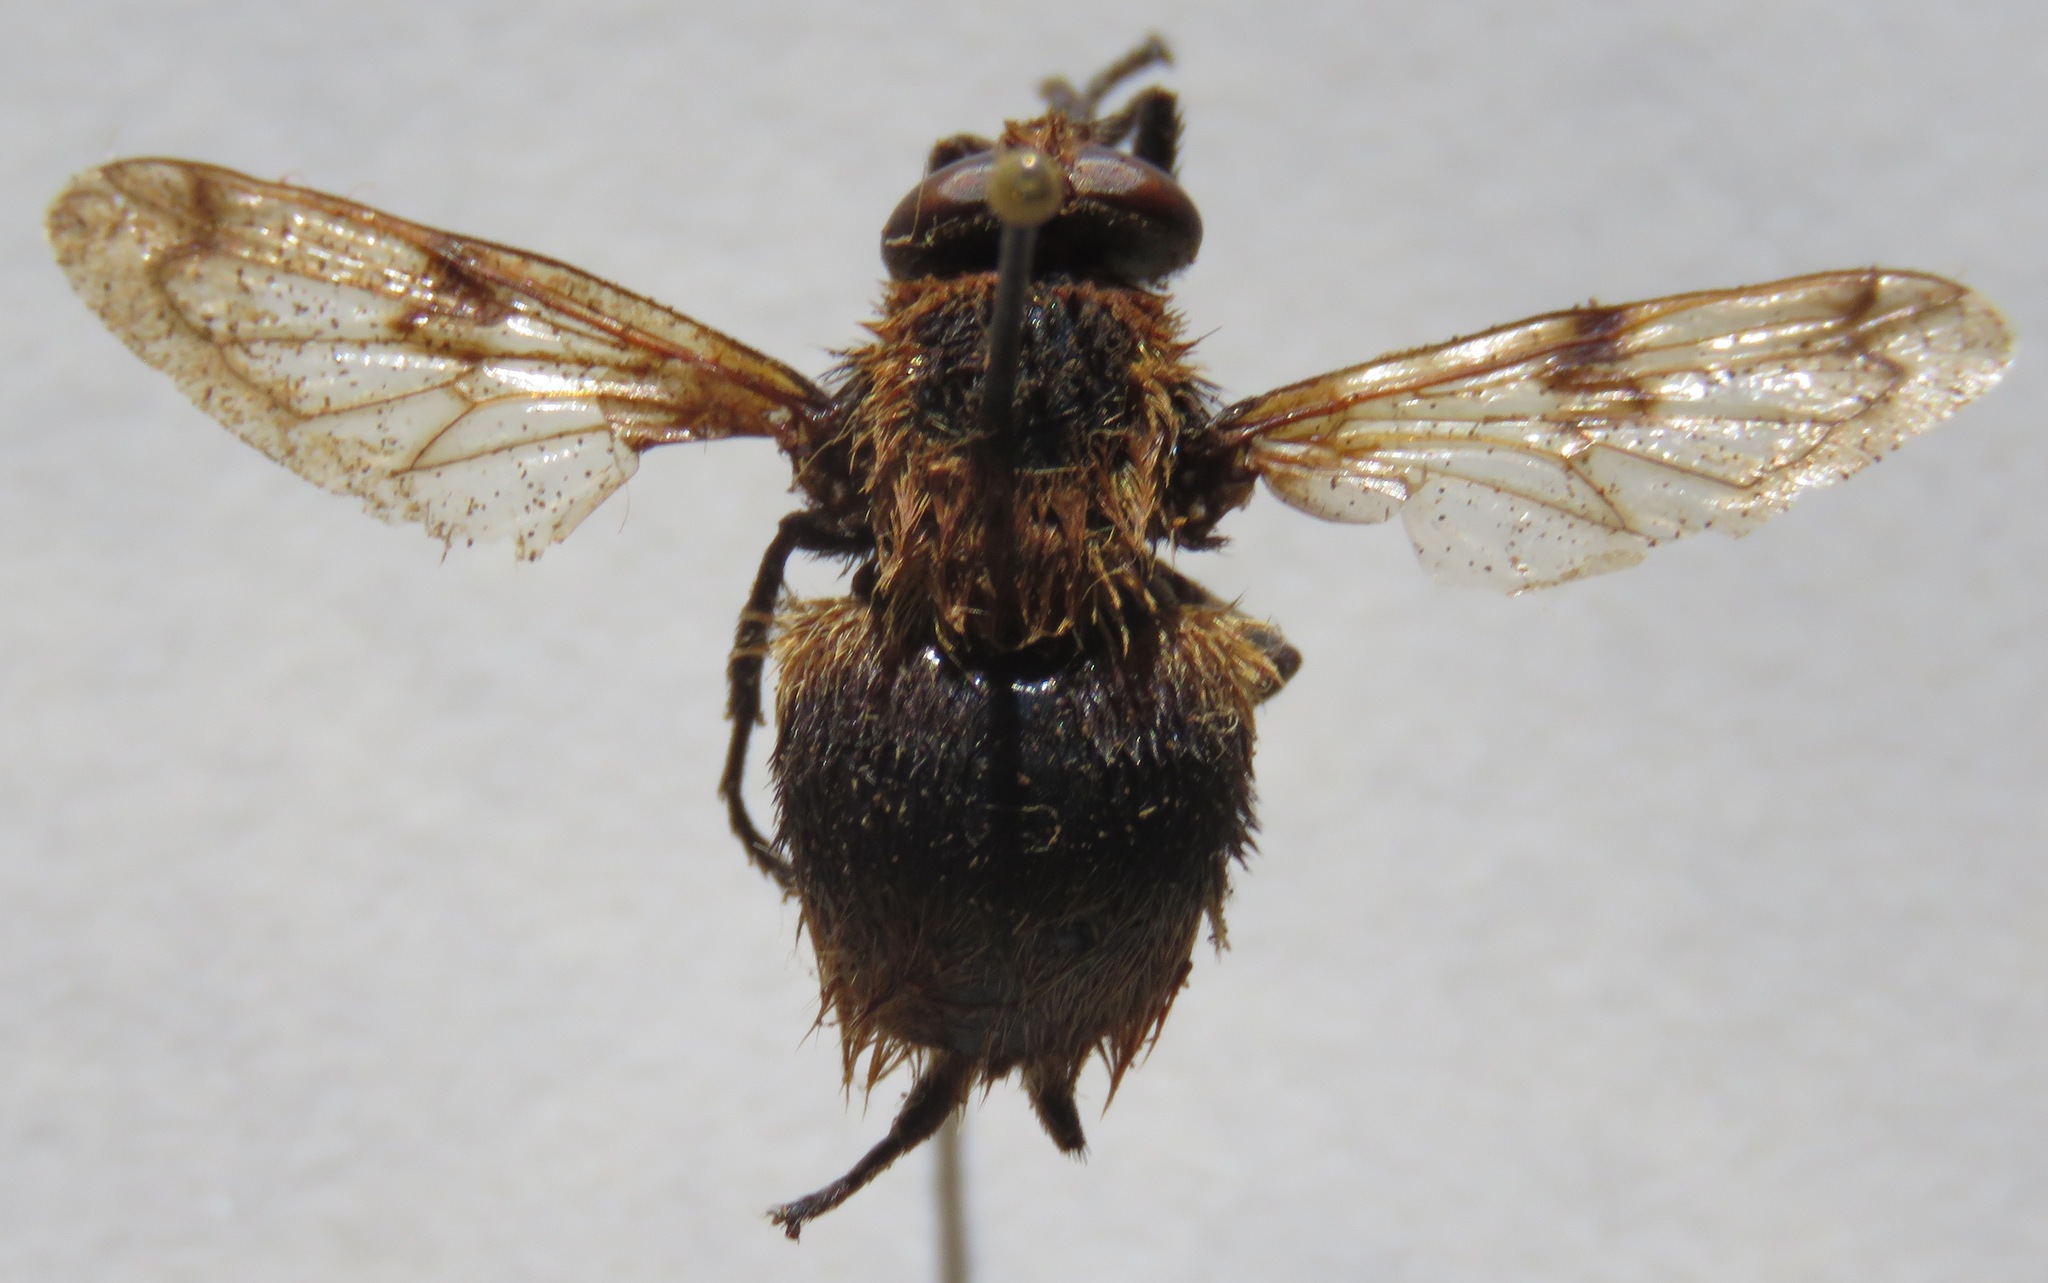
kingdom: Animalia
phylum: Arthropoda
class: Insecta
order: Diptera
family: Syrphidae
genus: Volucella
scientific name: Volucella bombylans
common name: Bumble bee hover fly
